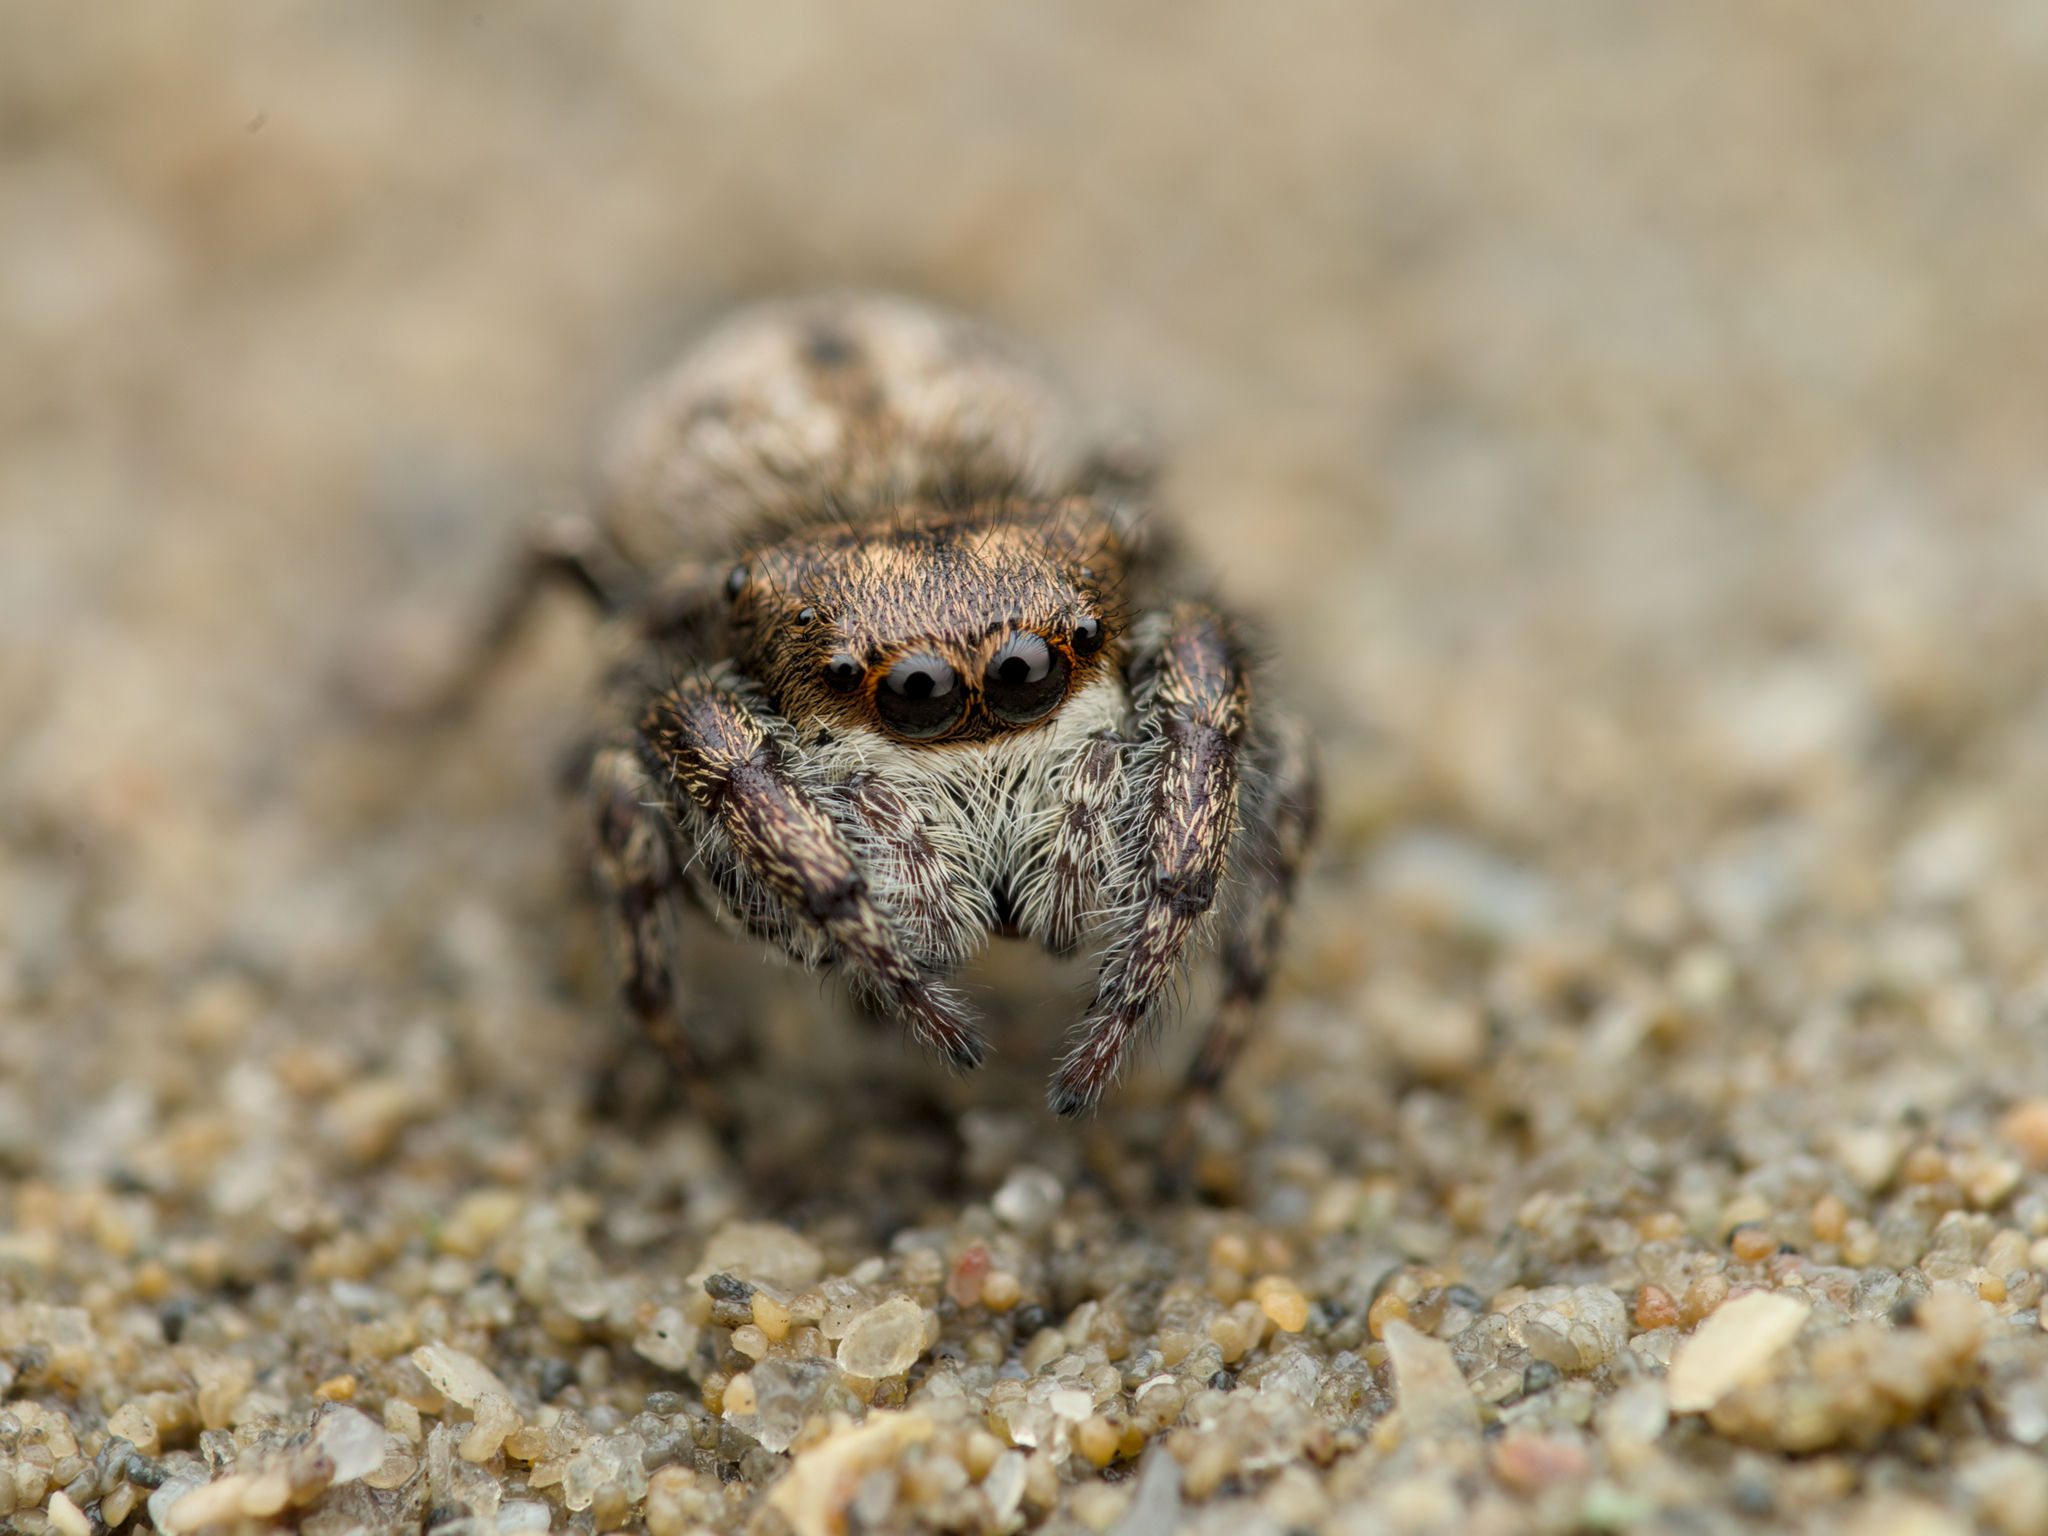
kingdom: Animalia
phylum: Arthropoda
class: Arachnida
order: Araneae
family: Salticidae
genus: Bianor
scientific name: Bianor albobimaculatus
